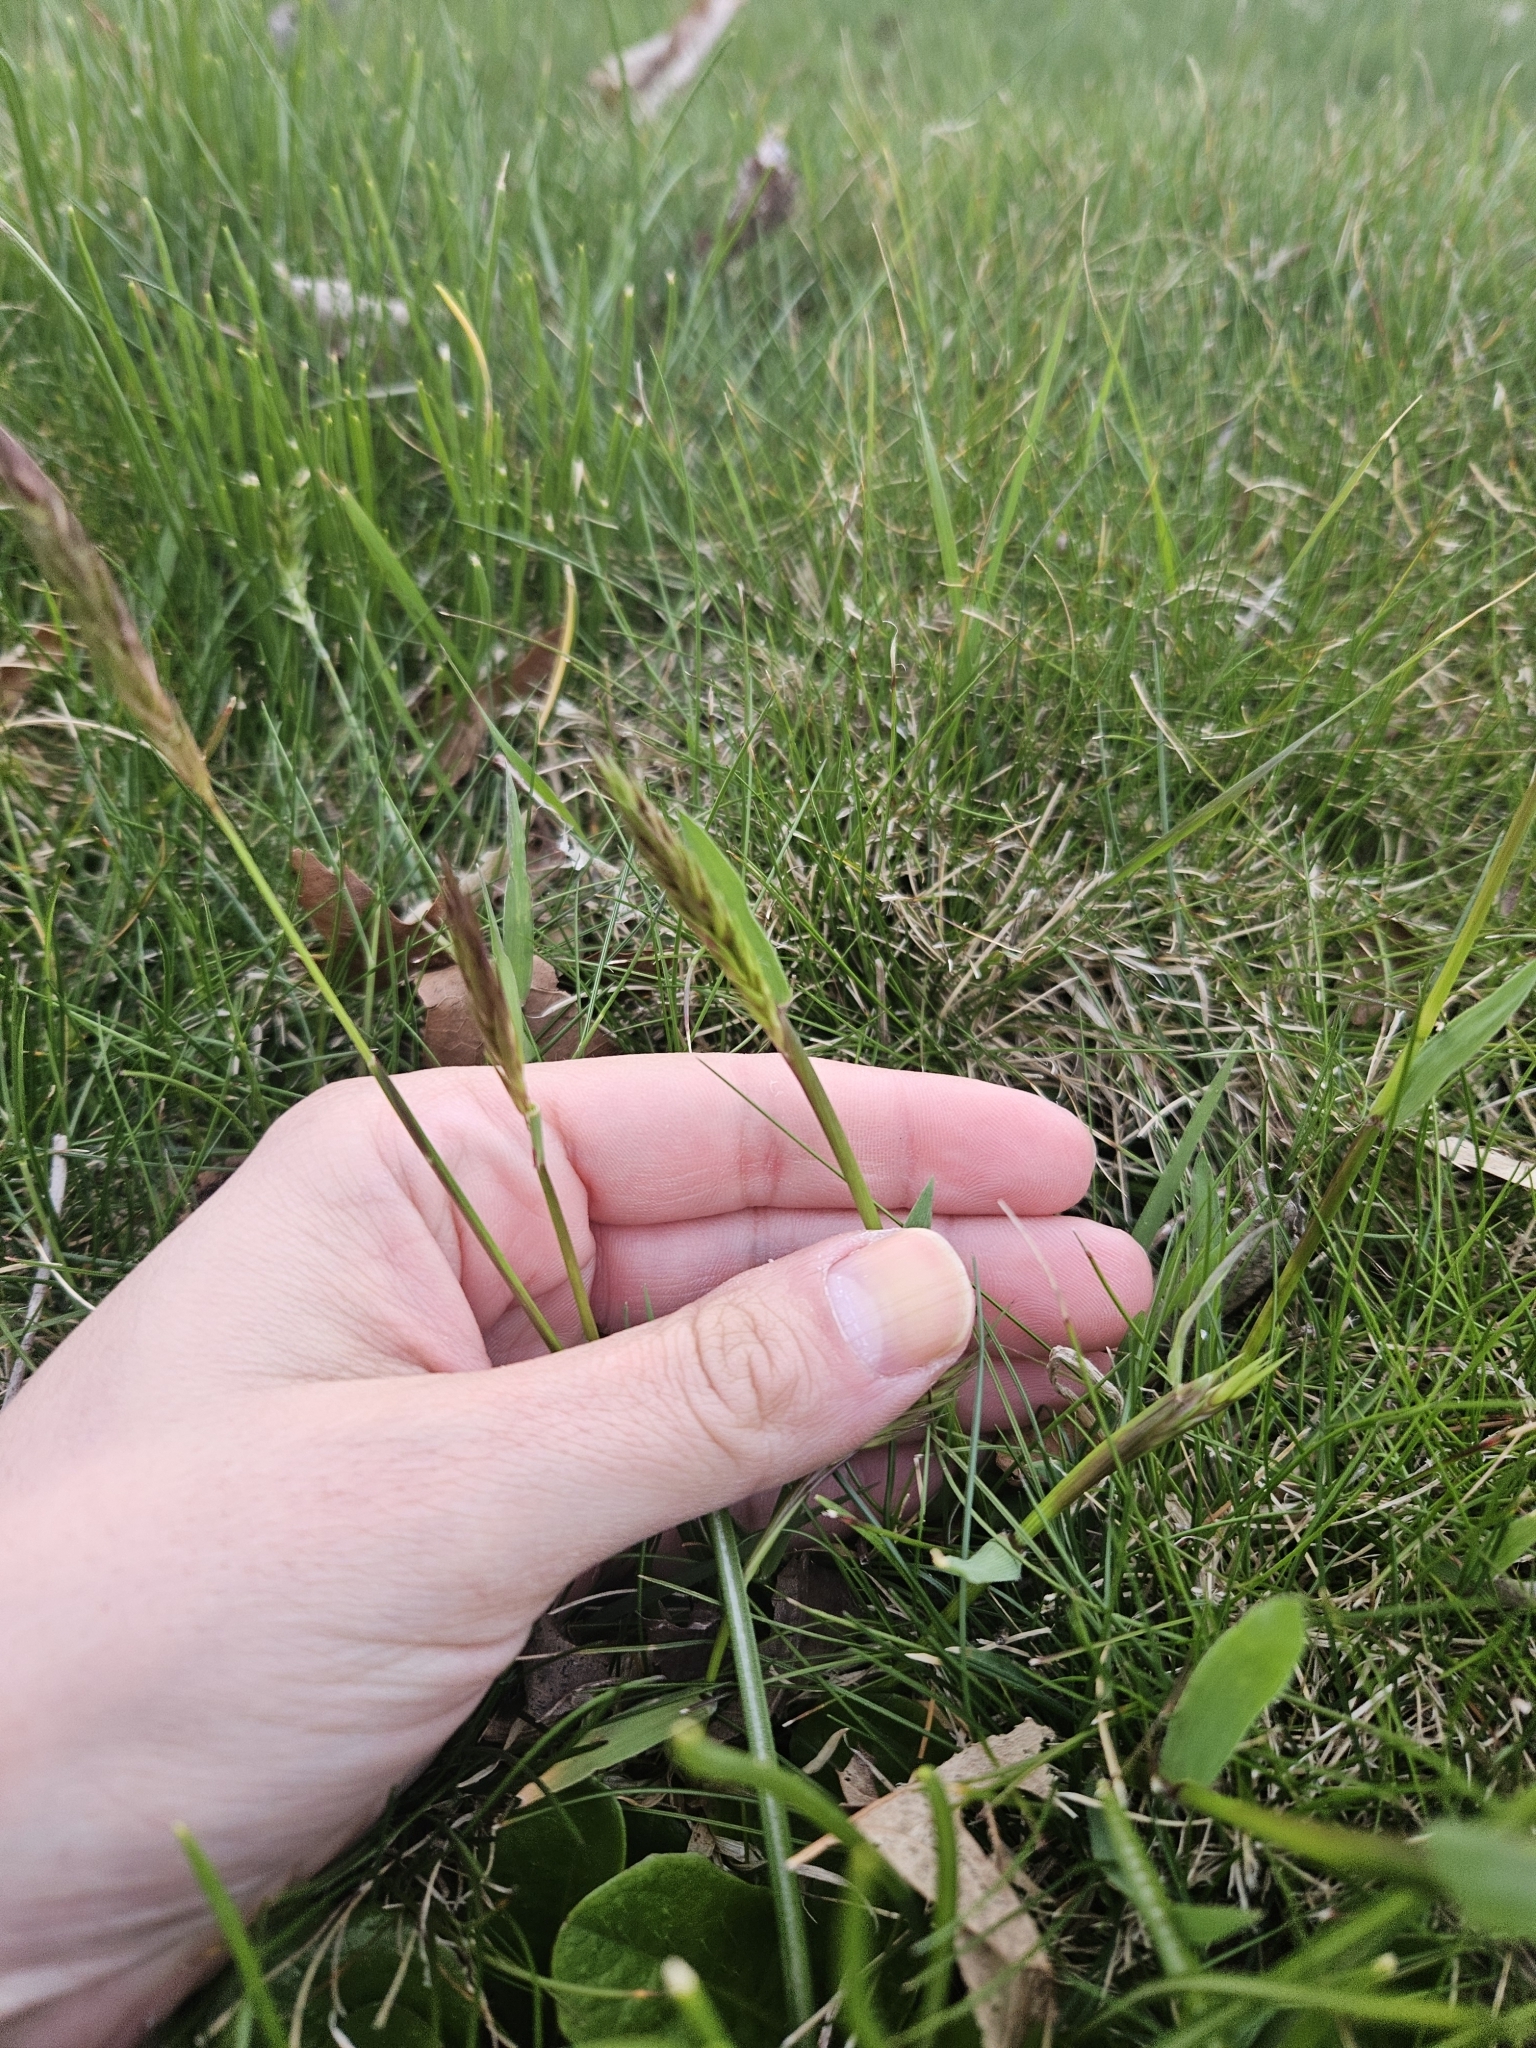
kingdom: Plantae
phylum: Tracheophyta
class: Liliopsida
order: Poales
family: Poaceae
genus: Elymus
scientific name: Elymus virginicus
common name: Common eastern wildrye
